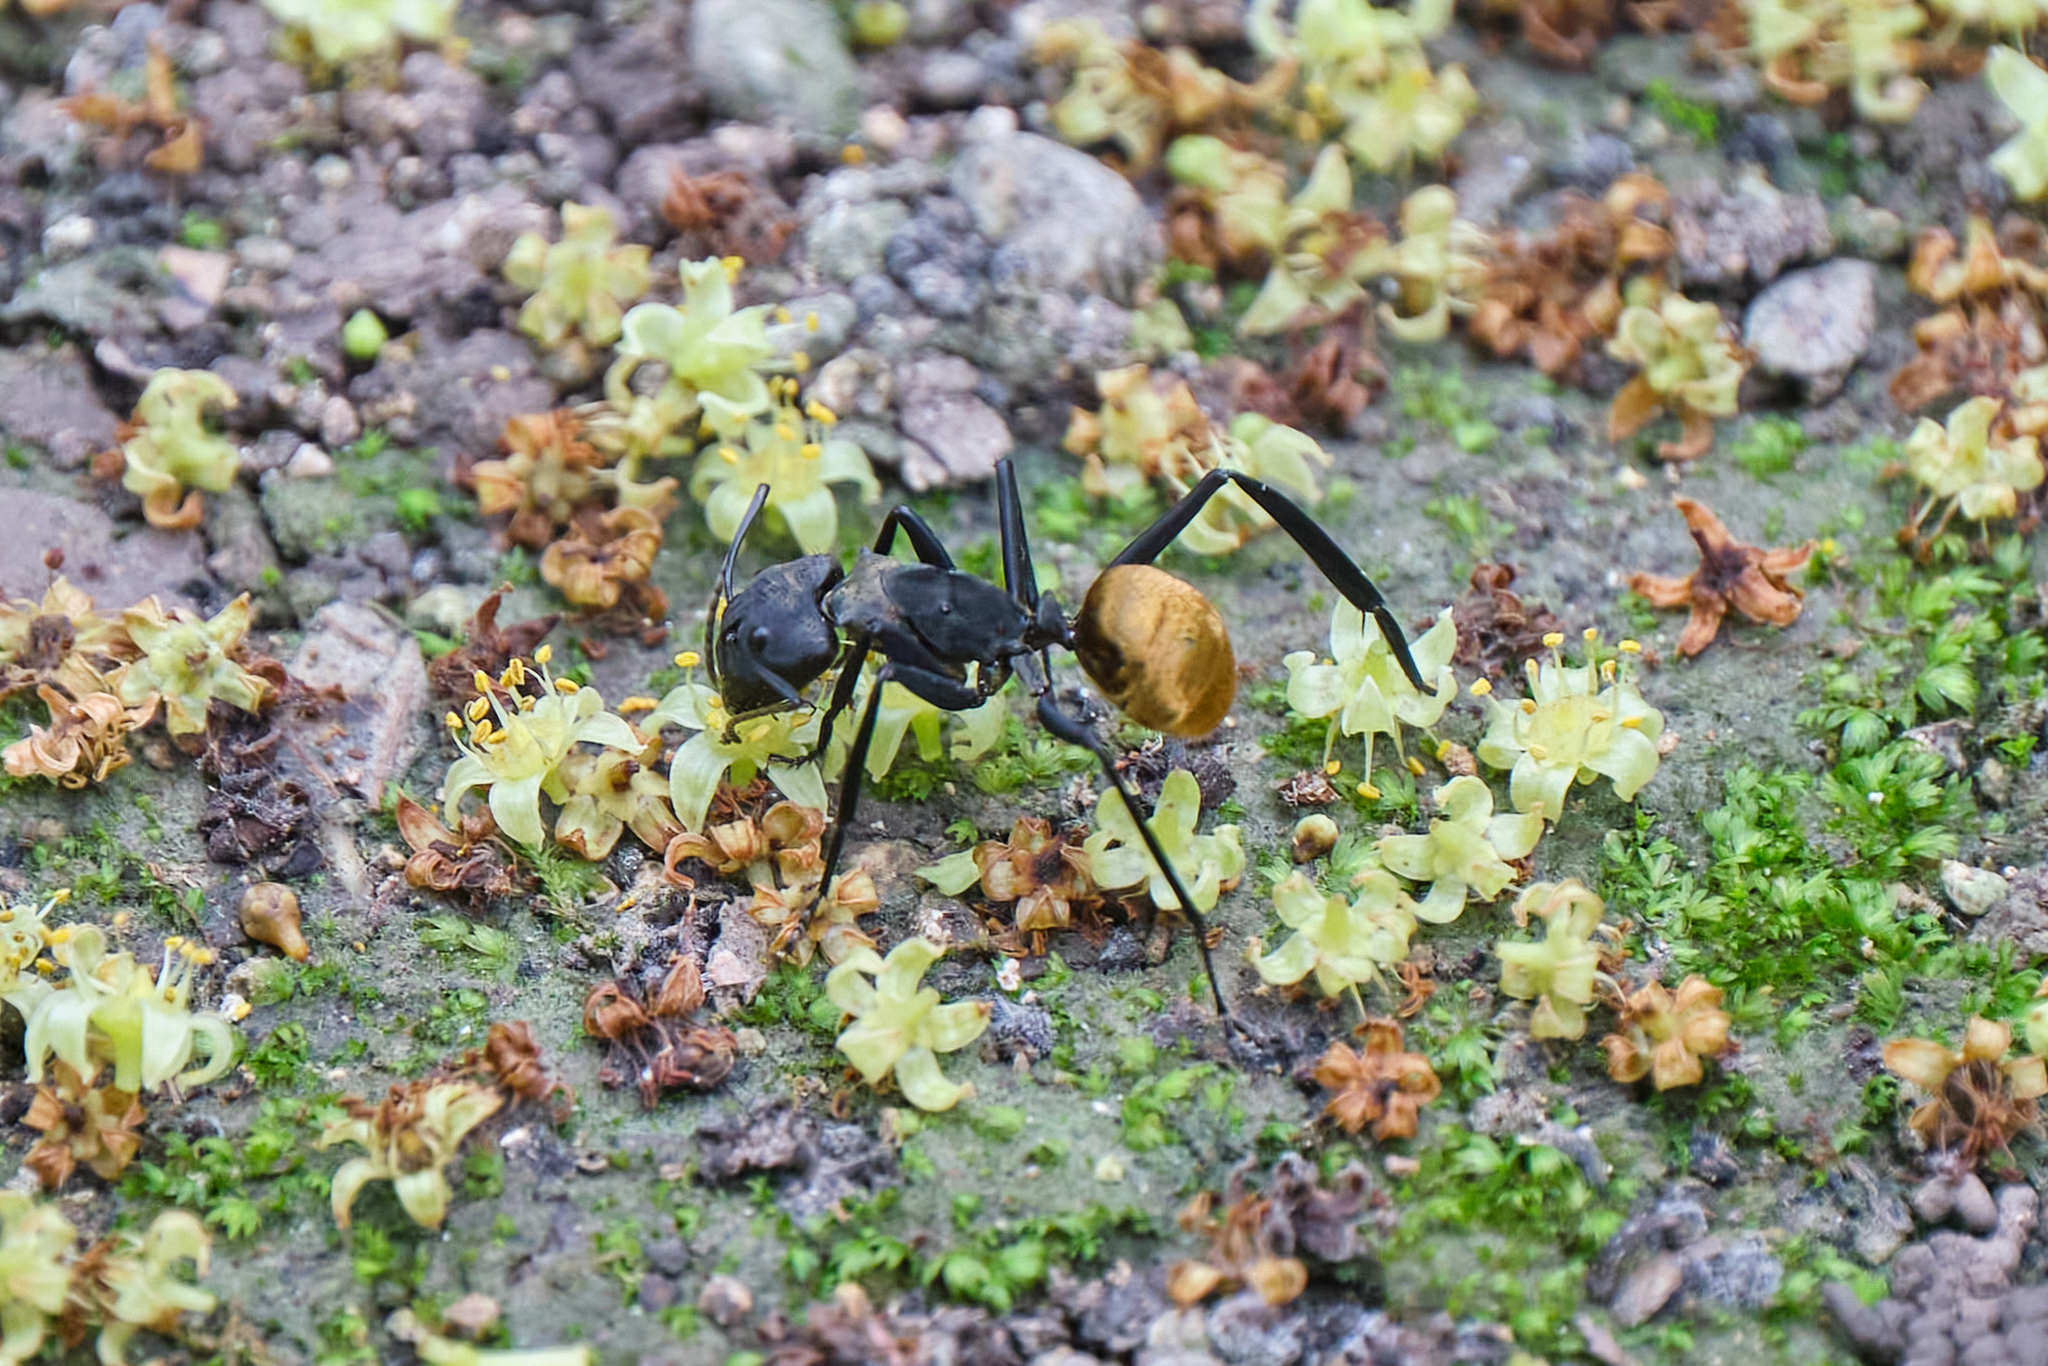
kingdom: Animalia
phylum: Arthropoda
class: Insecta
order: Hymenoptera
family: Formicidae
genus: Camponotus
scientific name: Camponotus sericeiventris
